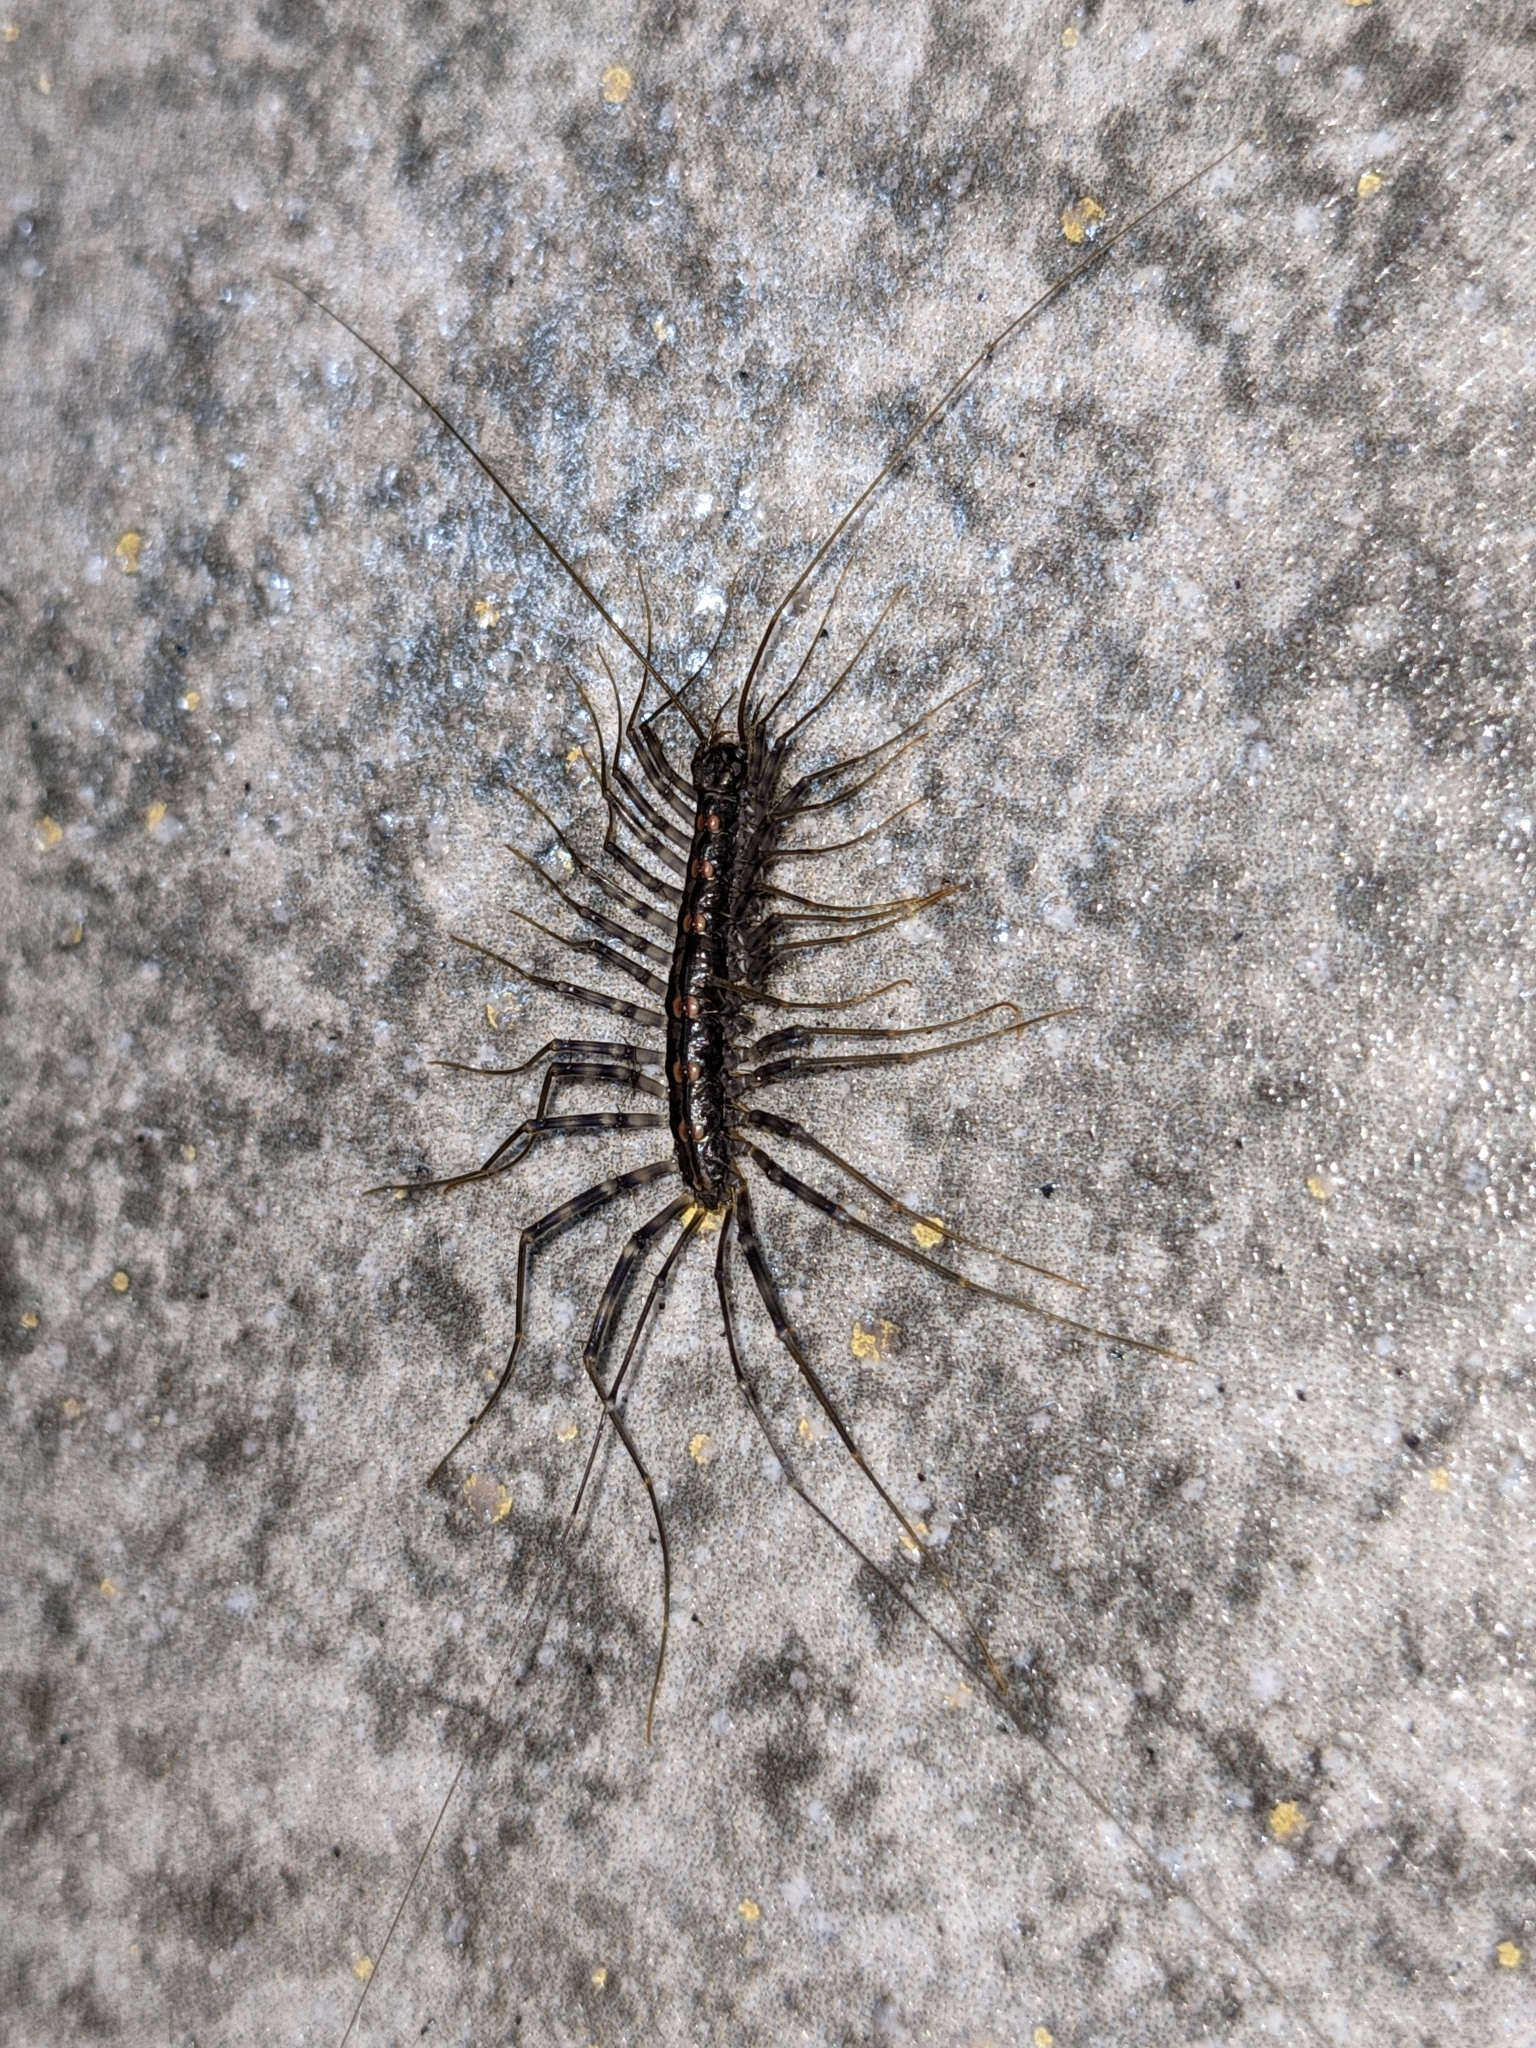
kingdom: Animalia
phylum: Arthropoda
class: Chilopoda
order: Scutigeromorpha
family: Scutigeridae
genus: Scutigera
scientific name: Scutigera coleoptrata
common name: House centipede
